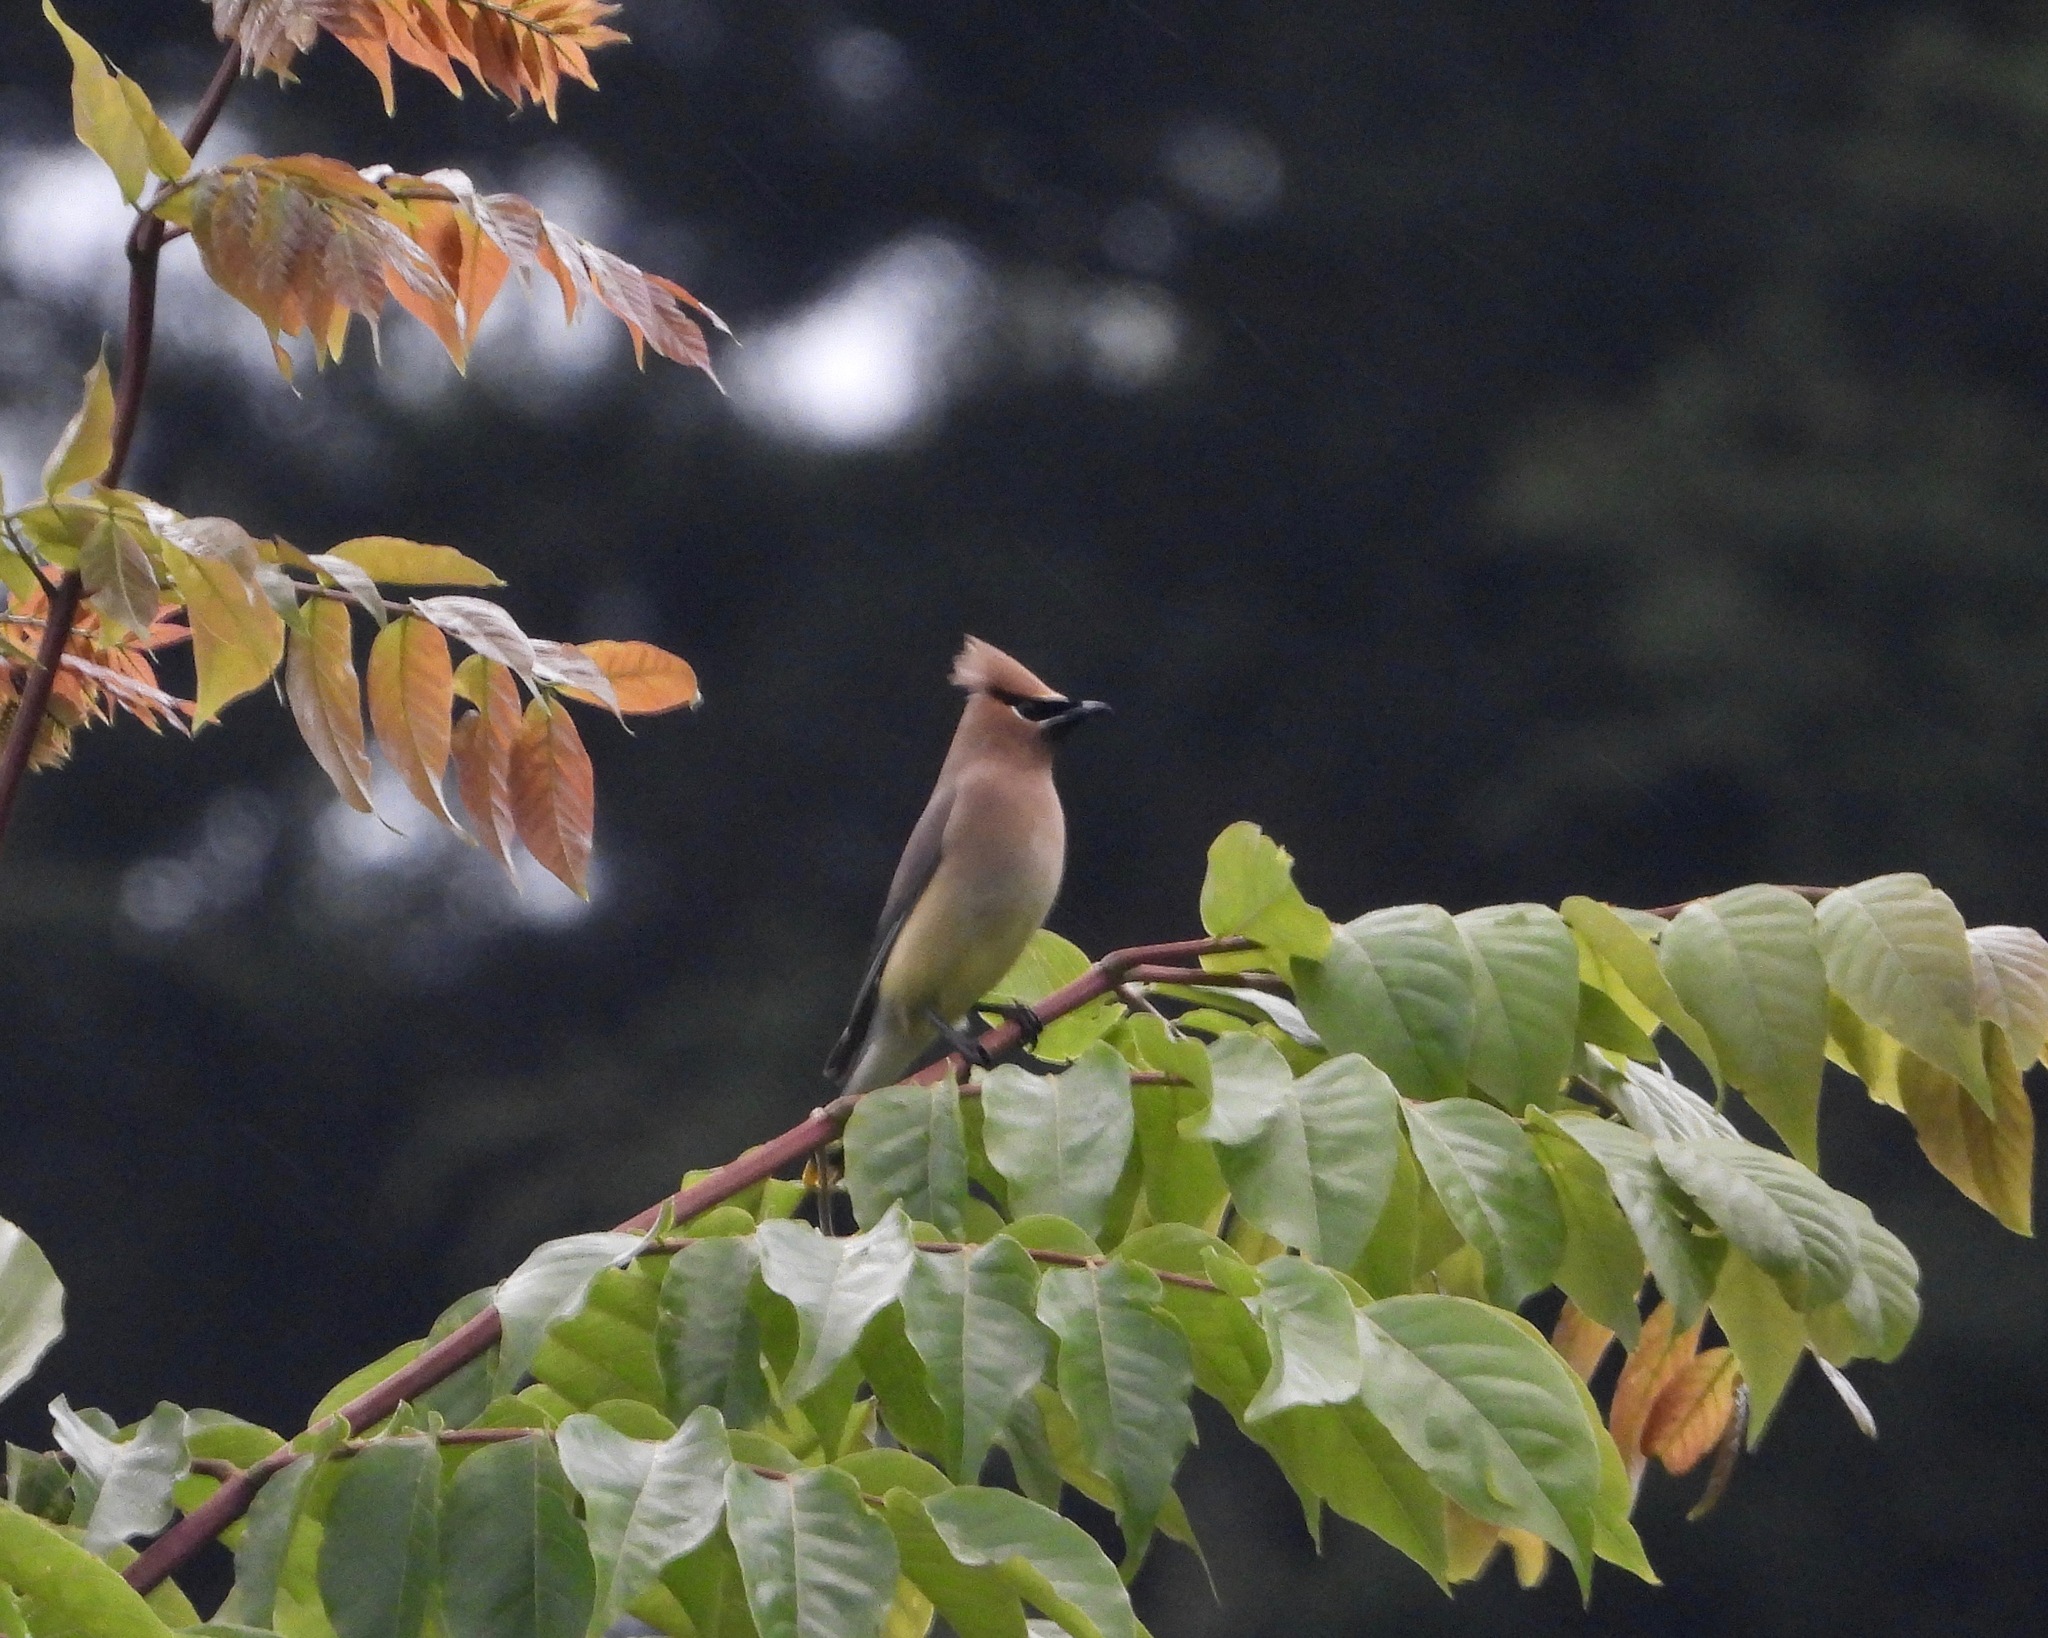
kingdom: Animalia
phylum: Chordata
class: Aves
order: Passeriformes
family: Bombycillidae
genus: Bombycilla
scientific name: Bombycilla cedrorum
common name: Cedar waxwing
